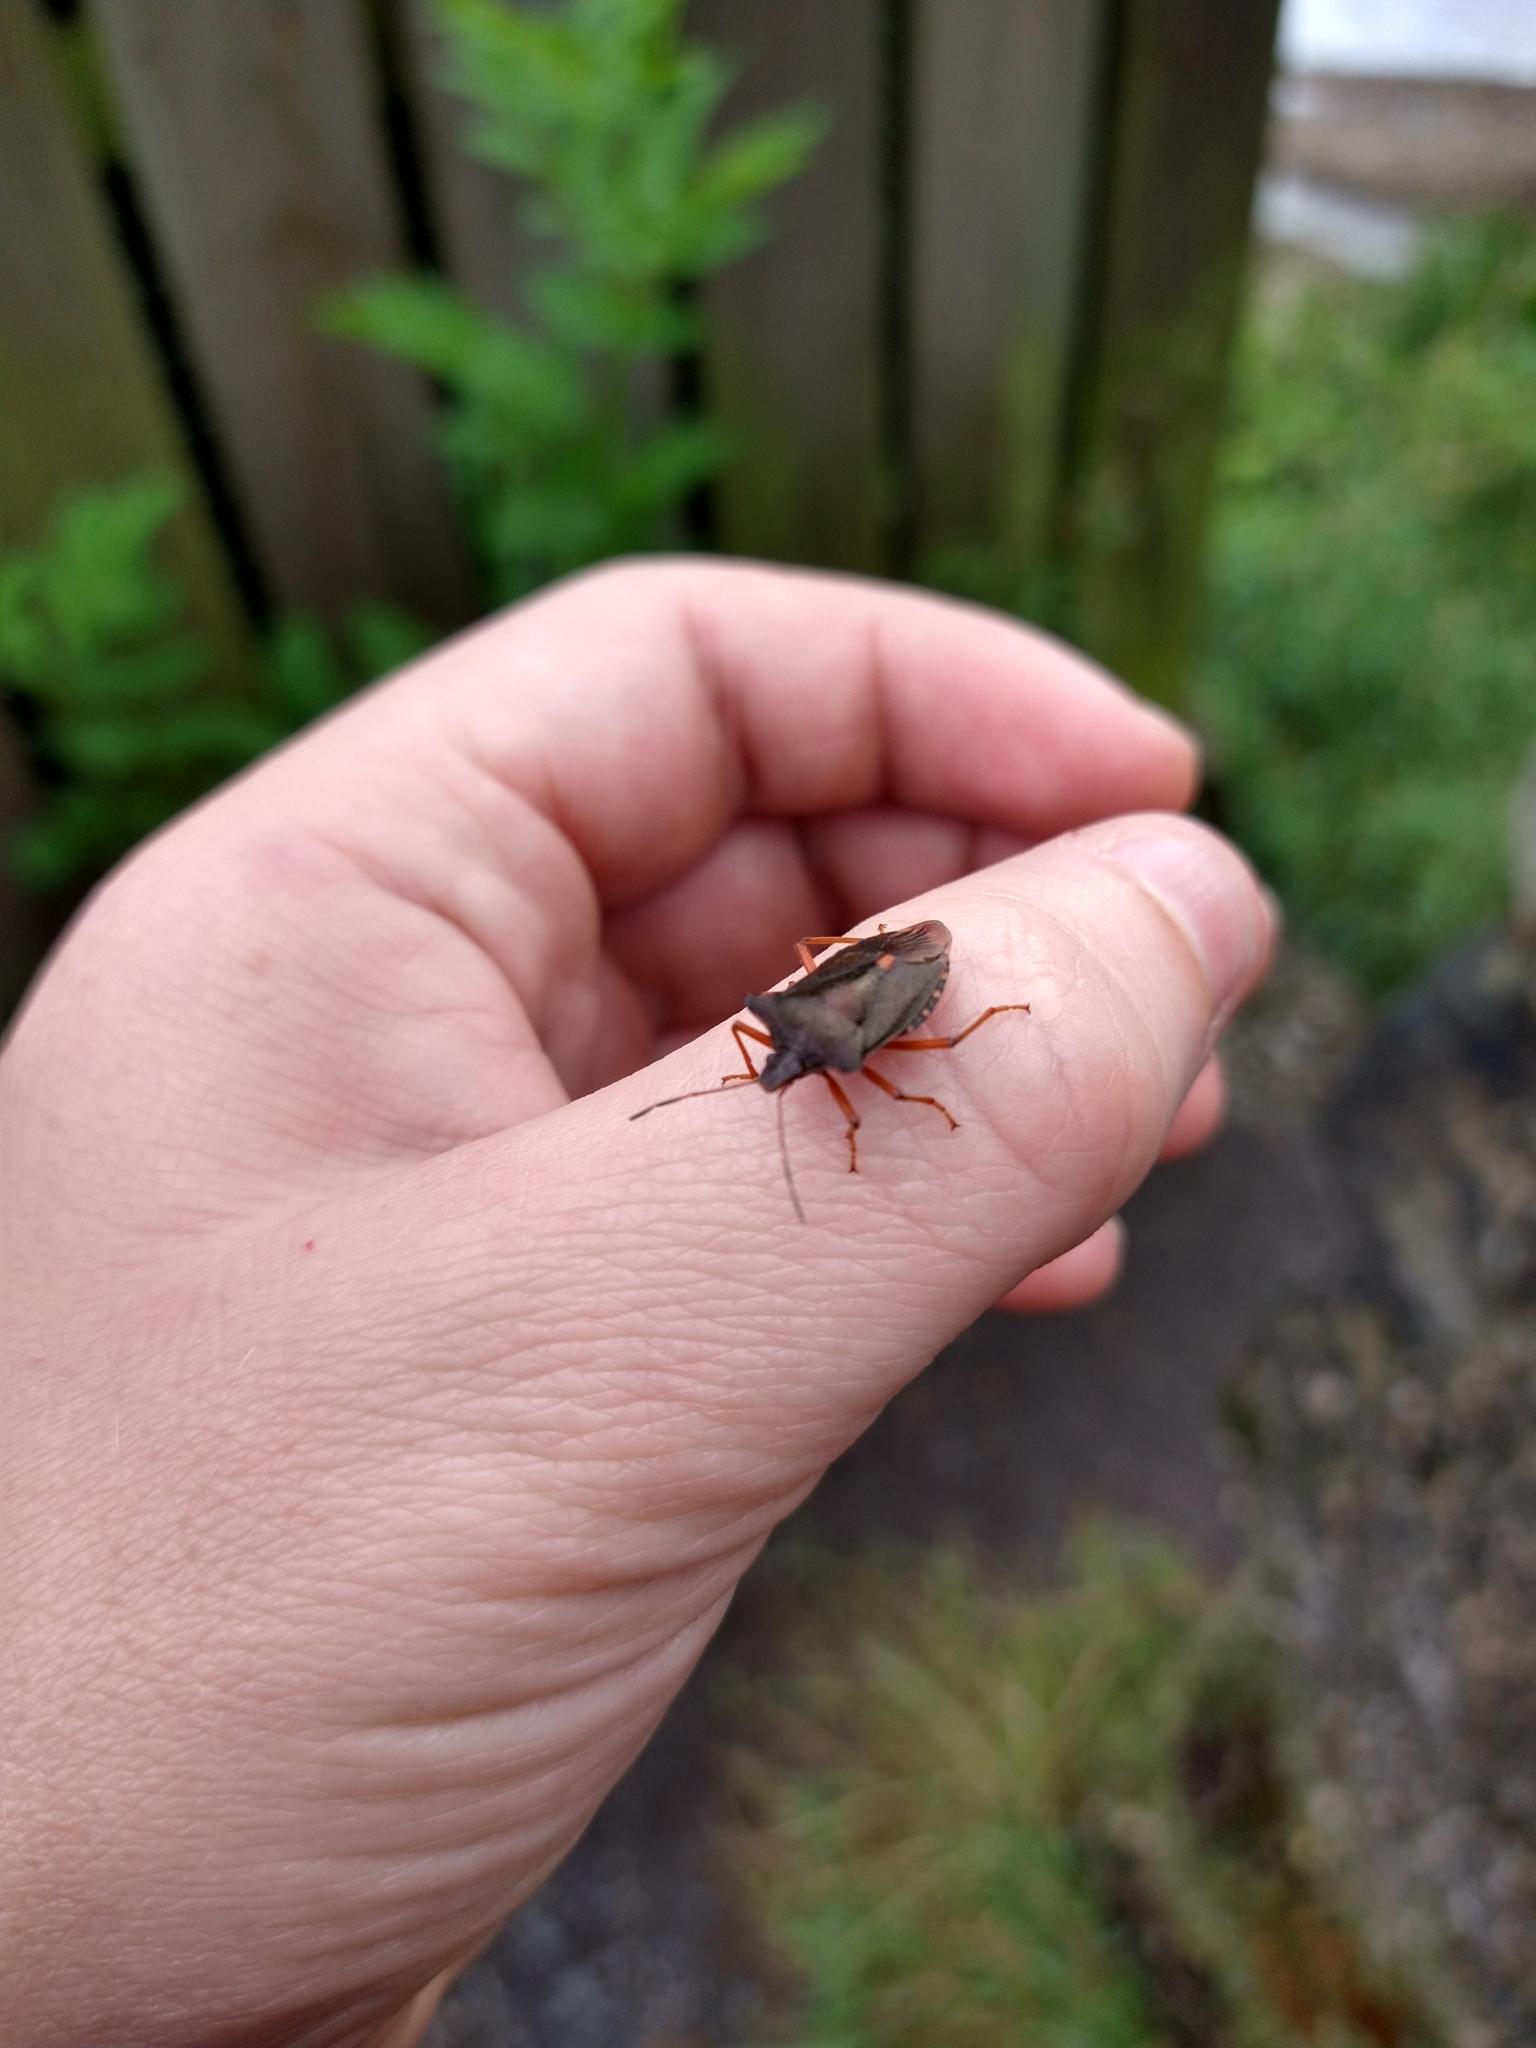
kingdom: Animalia
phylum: Arthropoda
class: Insecta
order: Hemiptera
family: Pentatomidae
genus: Pentatoma
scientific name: Pentatoma rufipes
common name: Forest bug
